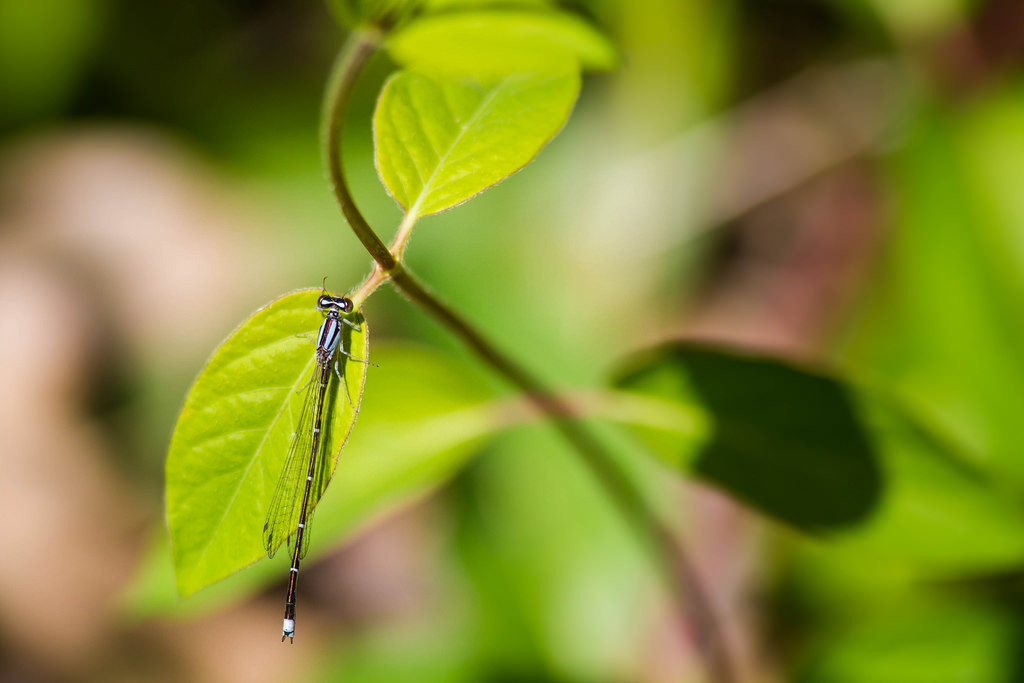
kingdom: Animalia
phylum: Arthropoda
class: Insecta
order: Odonata
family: Coenagrionidae
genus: Enallagma
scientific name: Enallagma signatum
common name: Orange bluet
